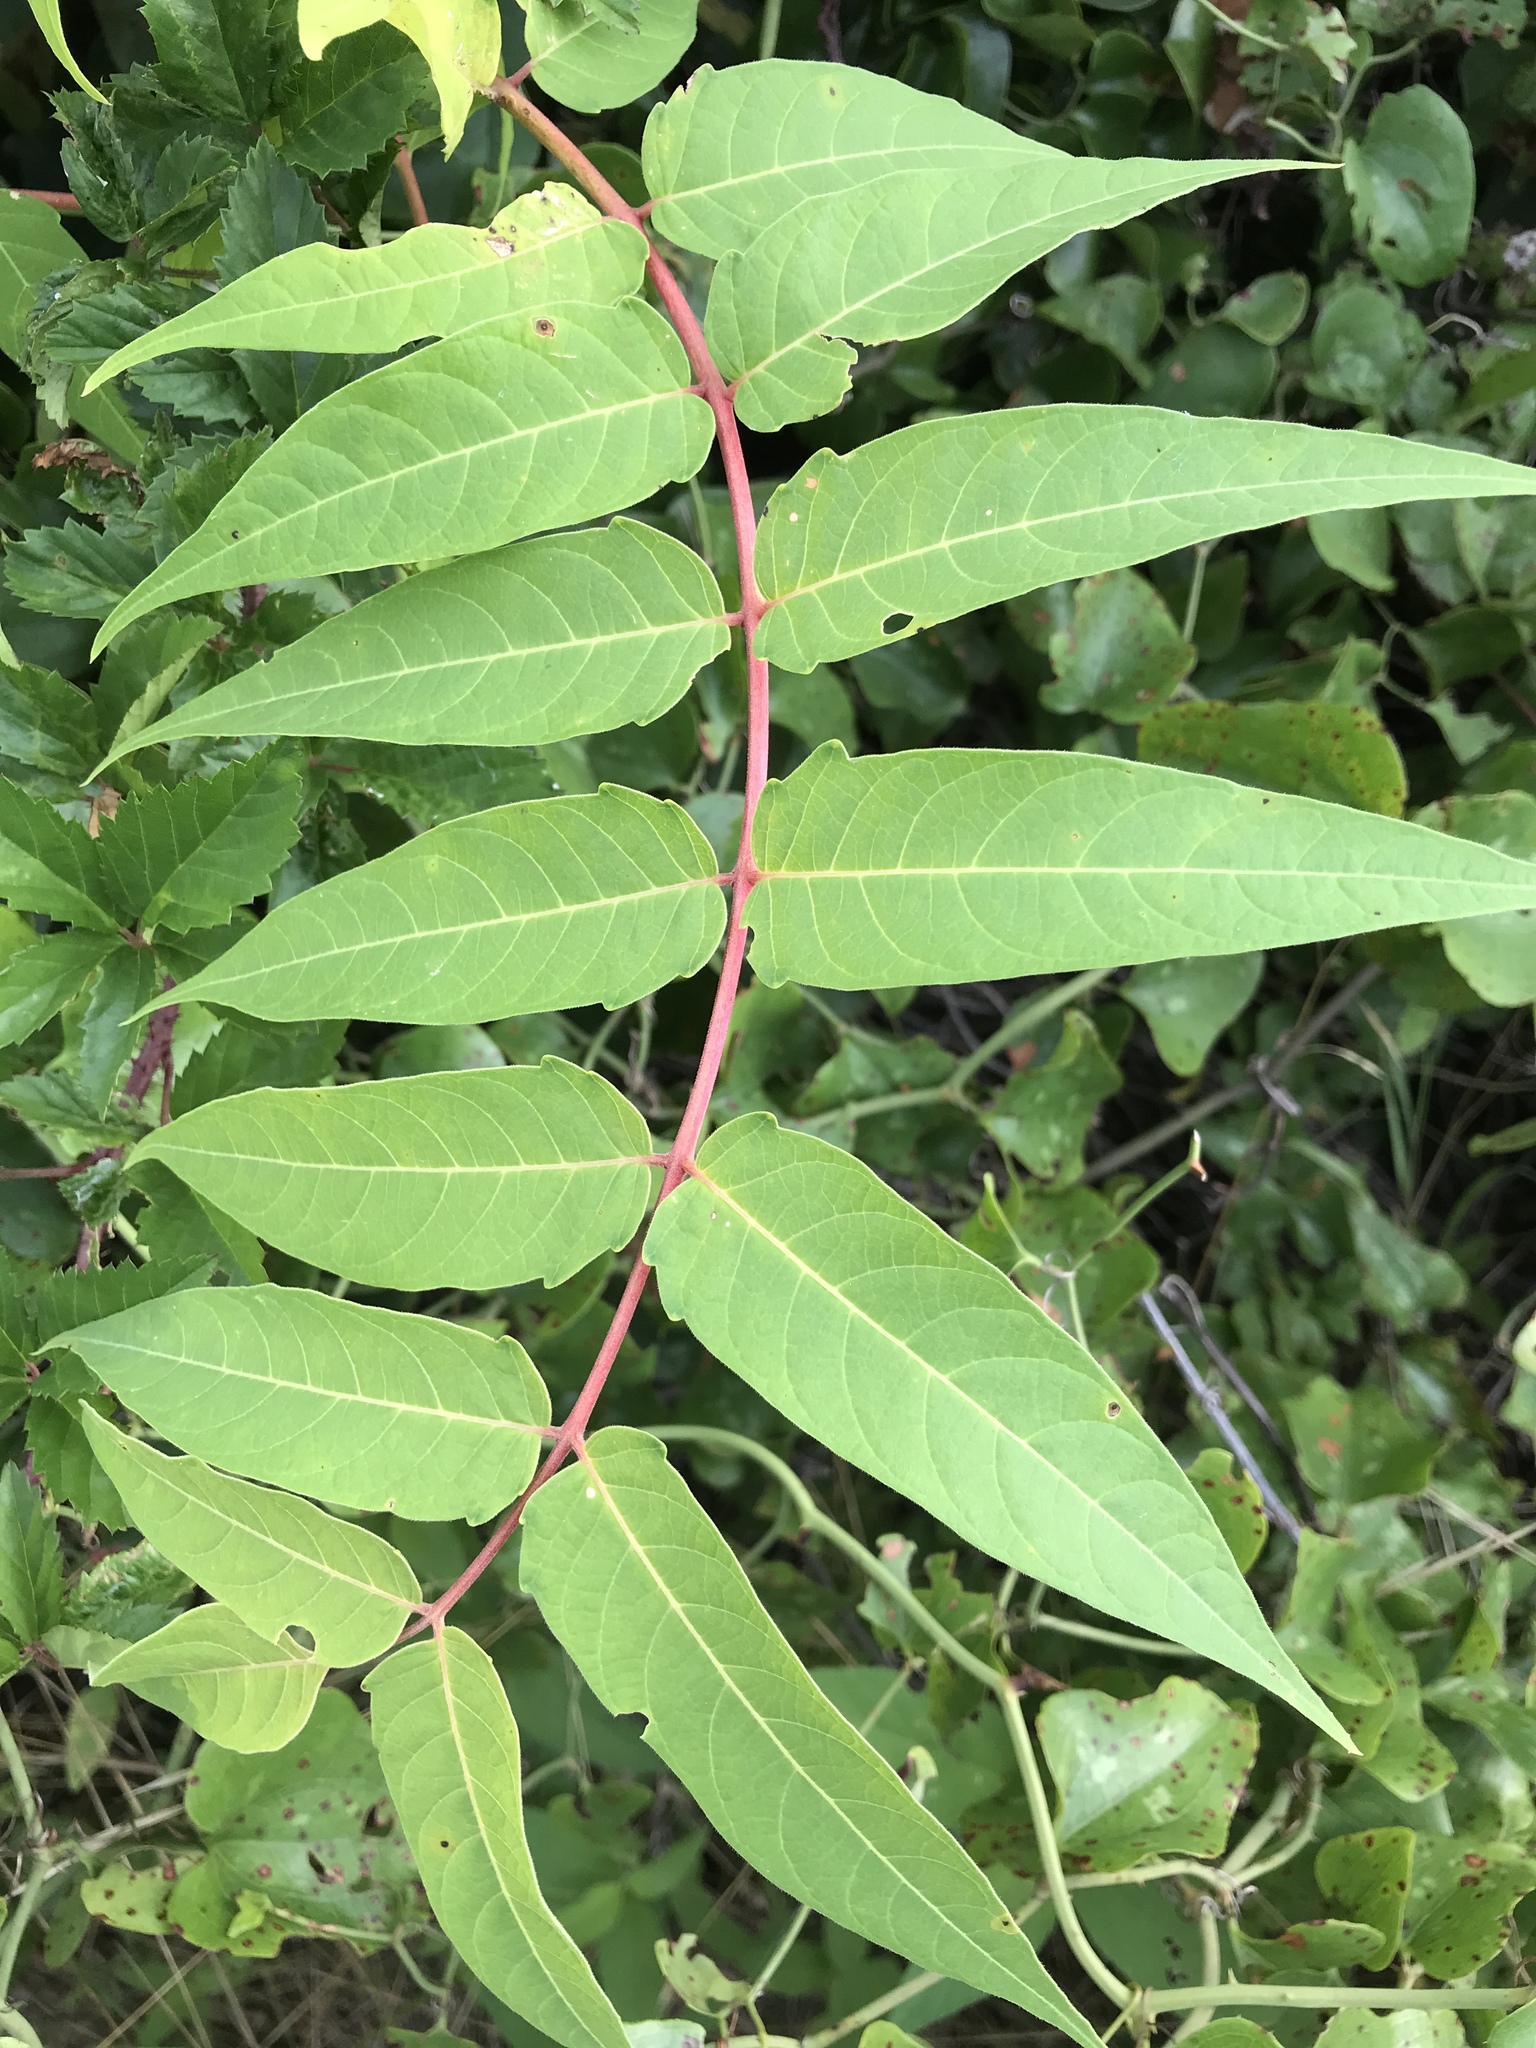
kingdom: Plantae
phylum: Tracheophyta
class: Magnoliopsida
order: Sapindales
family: Simaroubaceae
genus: Ailanthus
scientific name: Ailanthus altissima
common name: Tree-of-heaven
